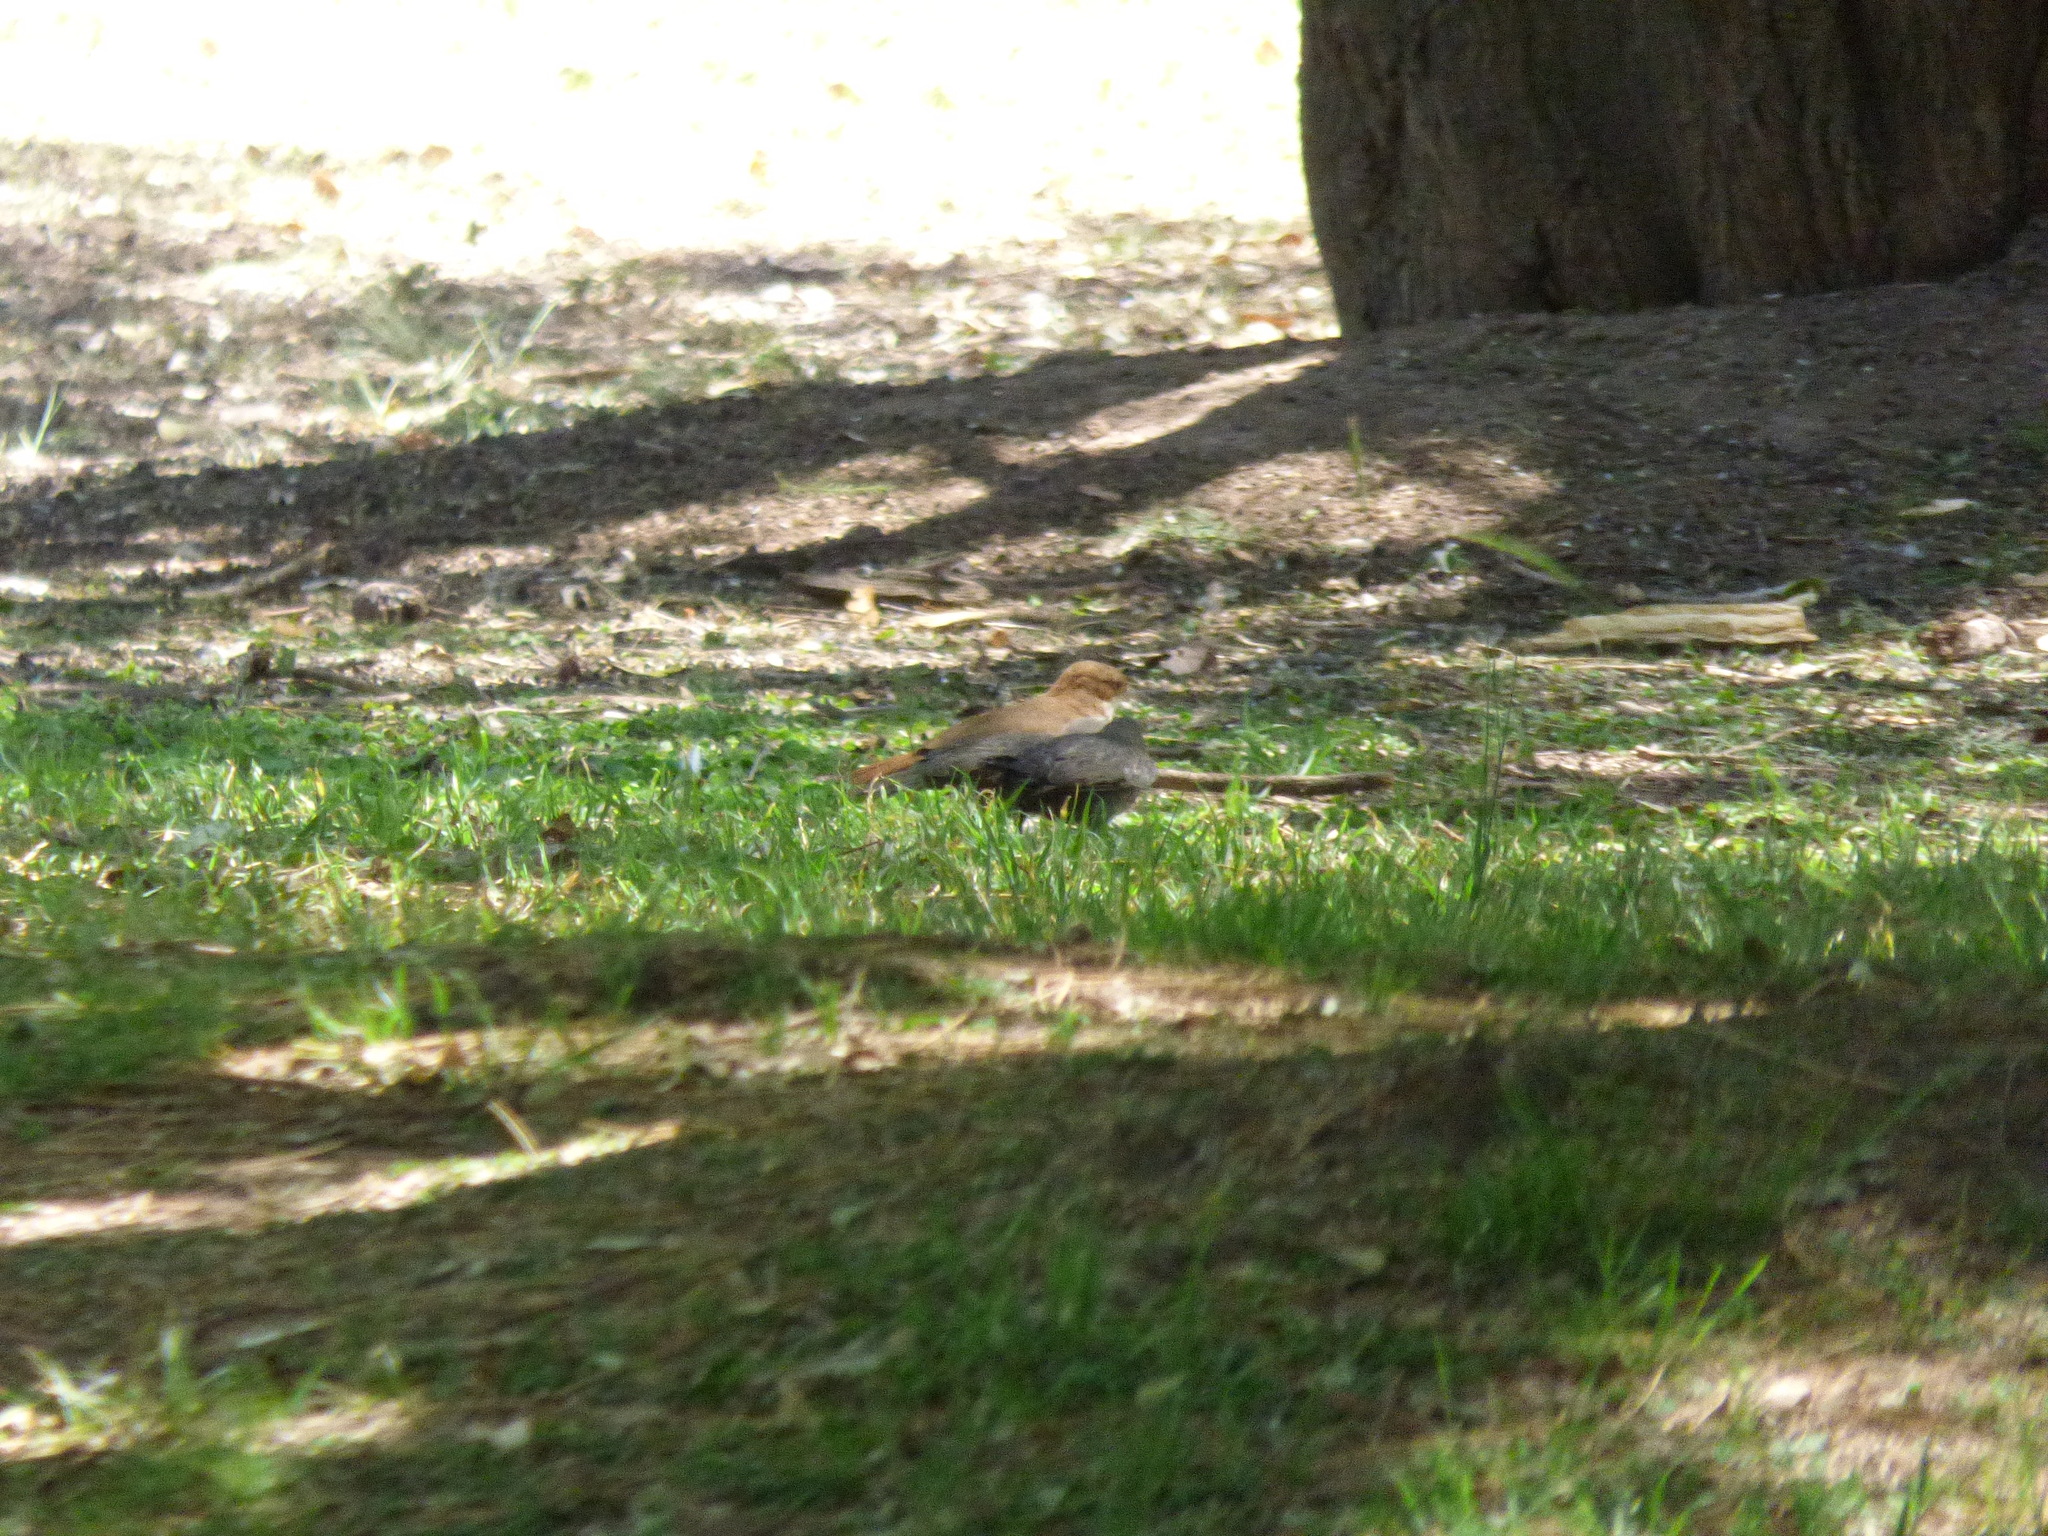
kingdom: Animalia
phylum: Chordata
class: Aves
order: Passeriformes
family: Furnariidae
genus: Furnarius
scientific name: Furnarius rufus
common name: Rufous hornero
